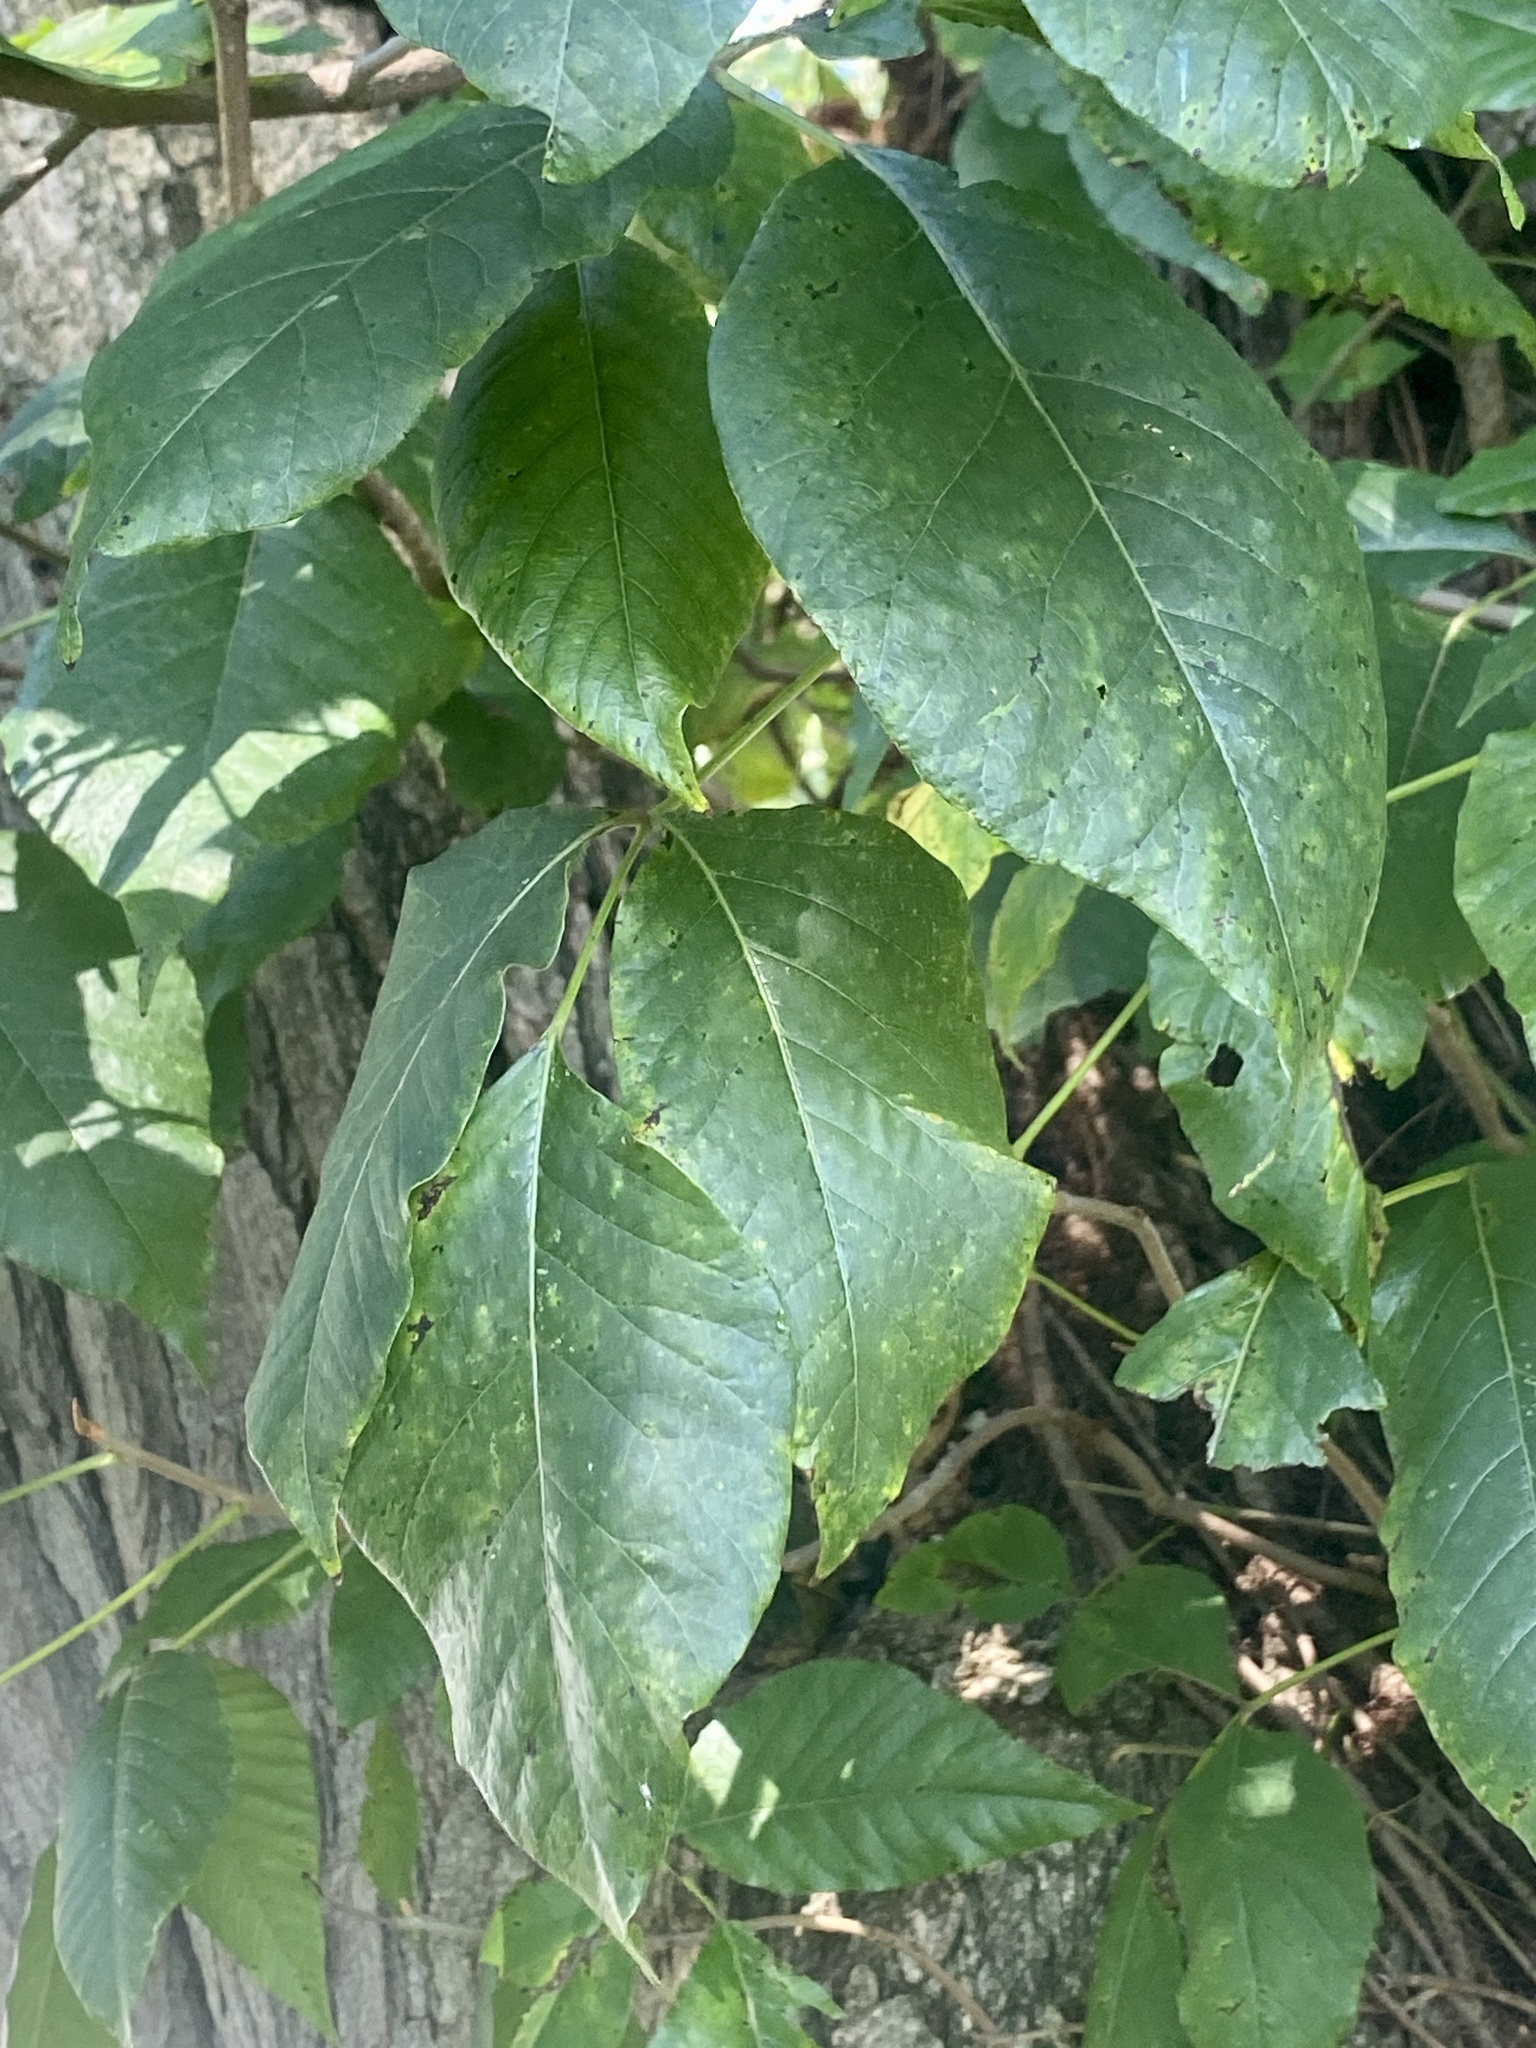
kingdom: Plantae
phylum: Tracheophyta
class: Magnoliopsida
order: Sapindales
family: Anacardiaceae
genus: Toxicodendron
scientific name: Toxicodendron radicans
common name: Poison ivy
